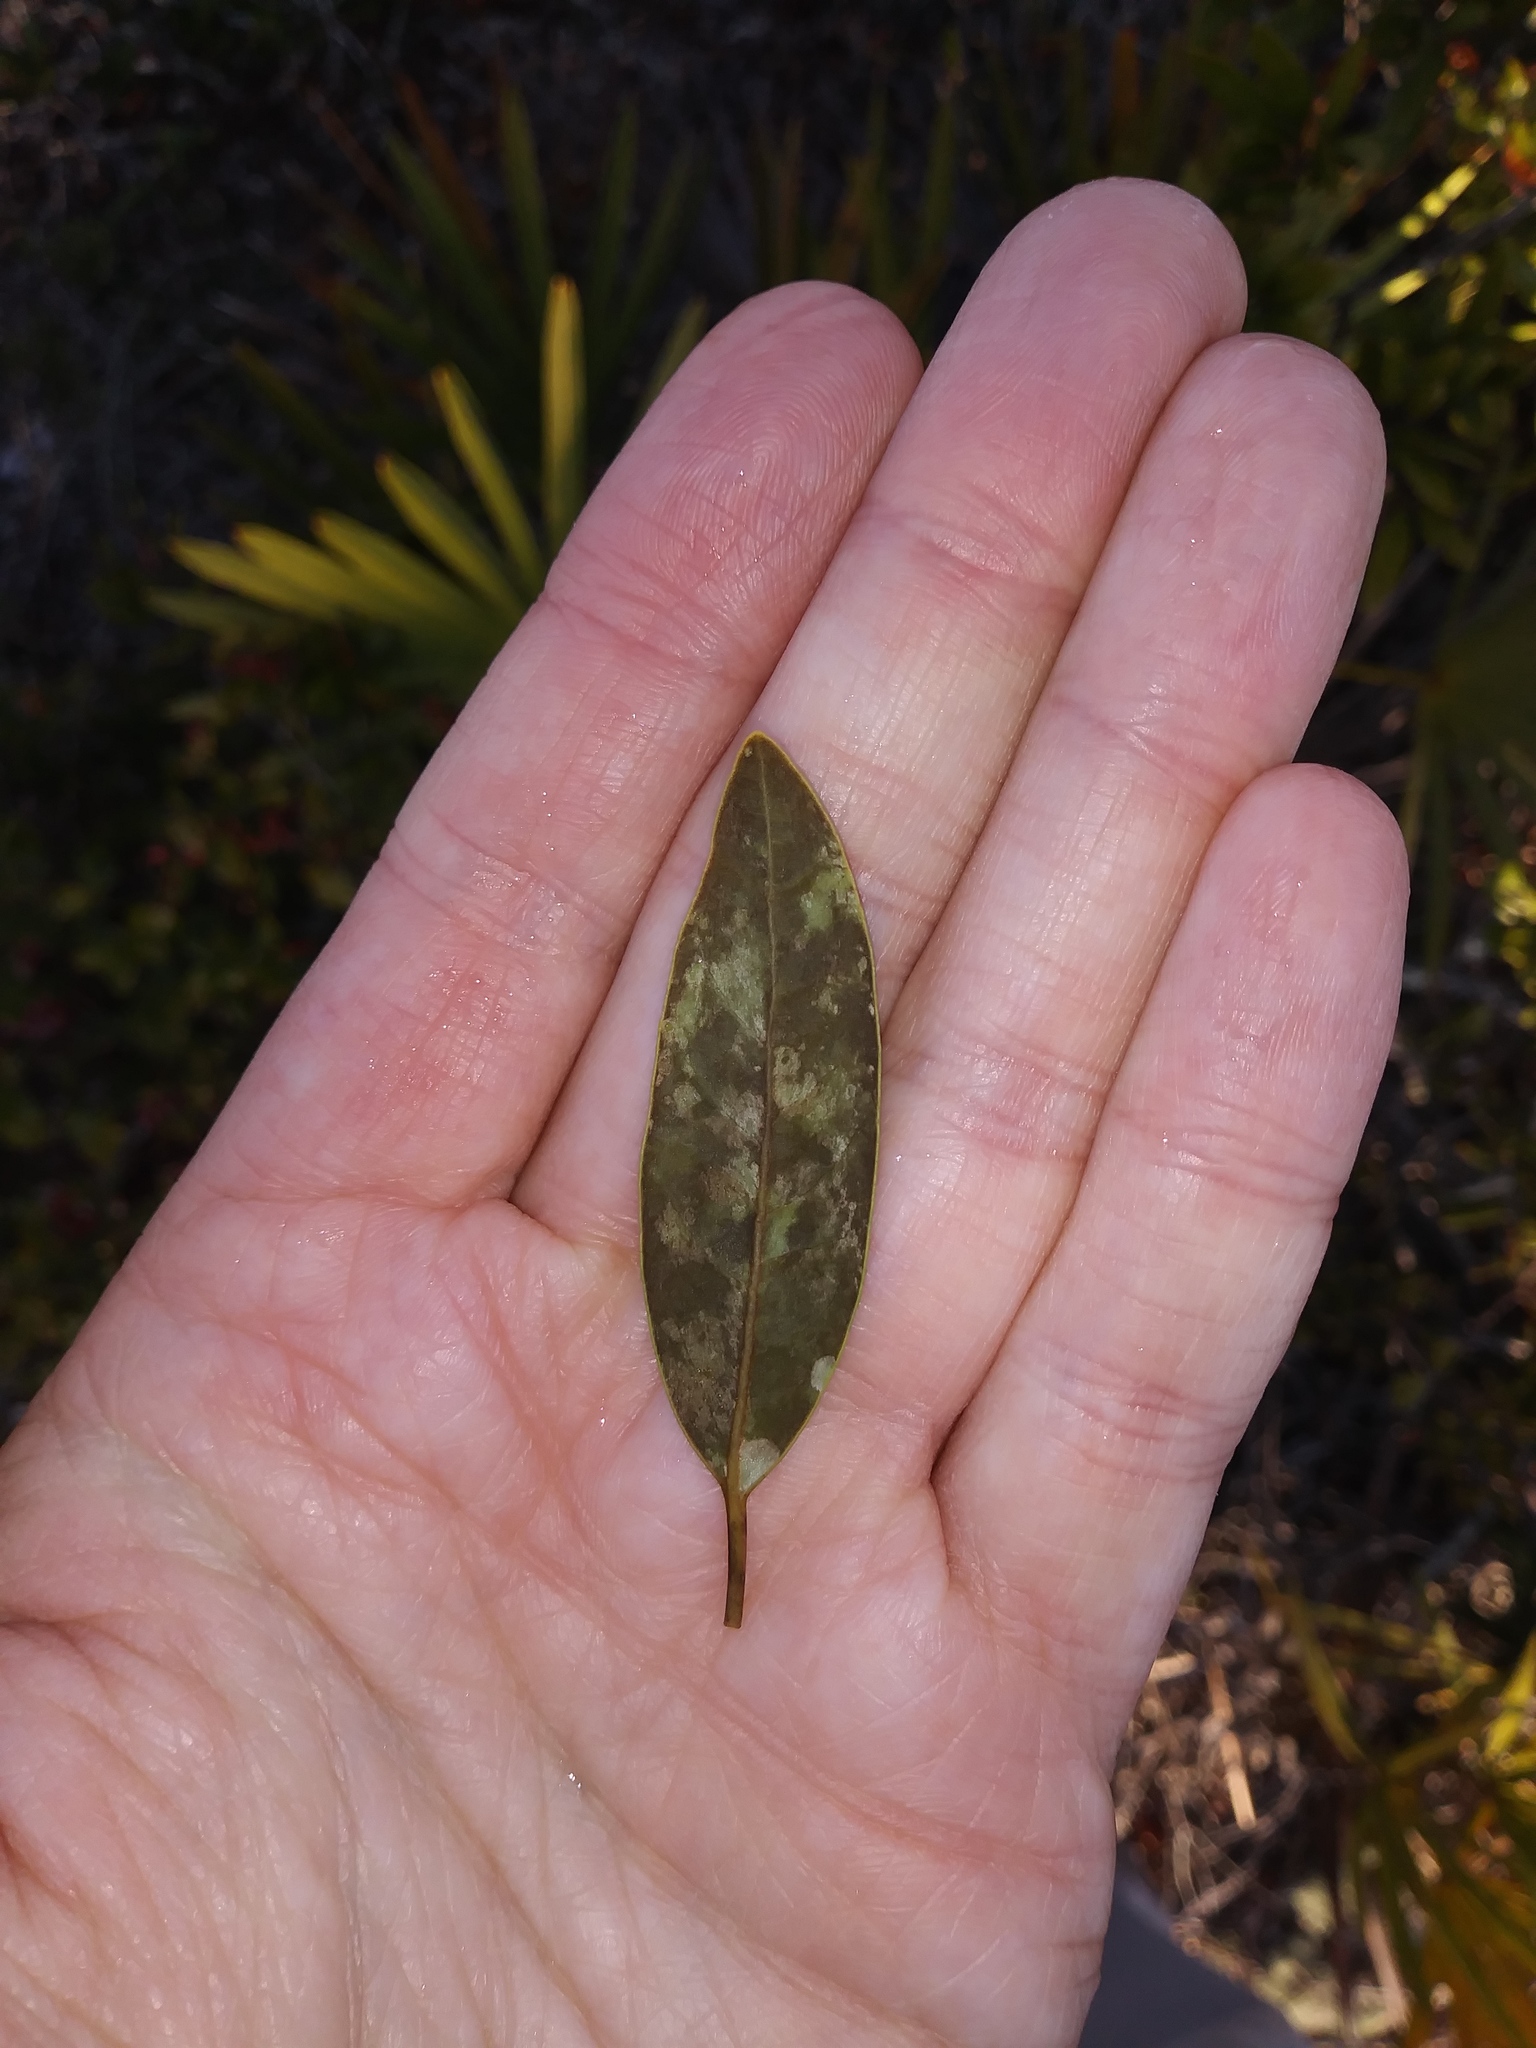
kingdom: Plantae
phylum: Tracheophyta
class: Magnoliopsida
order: Laurales
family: Lauraceae
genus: Persea
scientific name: Persea humilis
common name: Silkbay
